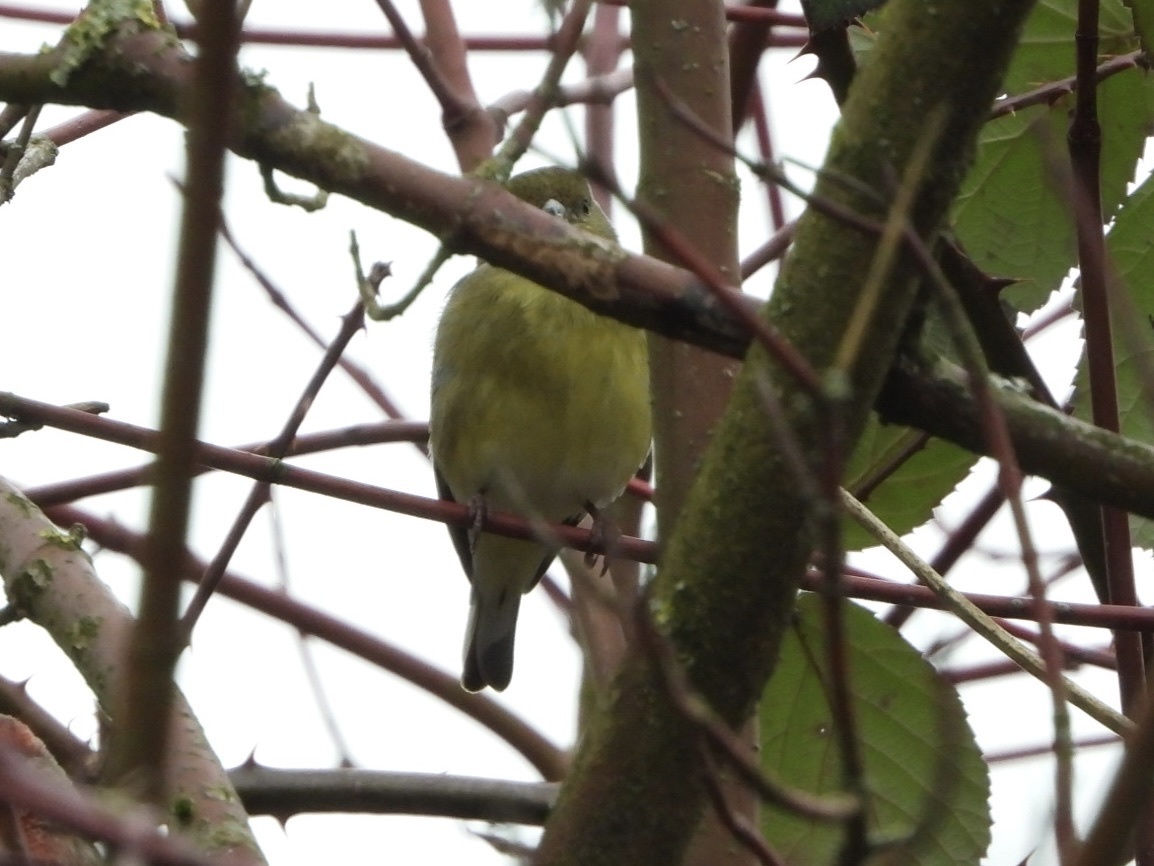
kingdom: Animalia
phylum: Chordata
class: Aves
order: Passeriformes
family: Fringillidae
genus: Spinus
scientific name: Spinus psaltria
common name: Lesser goldfinch
